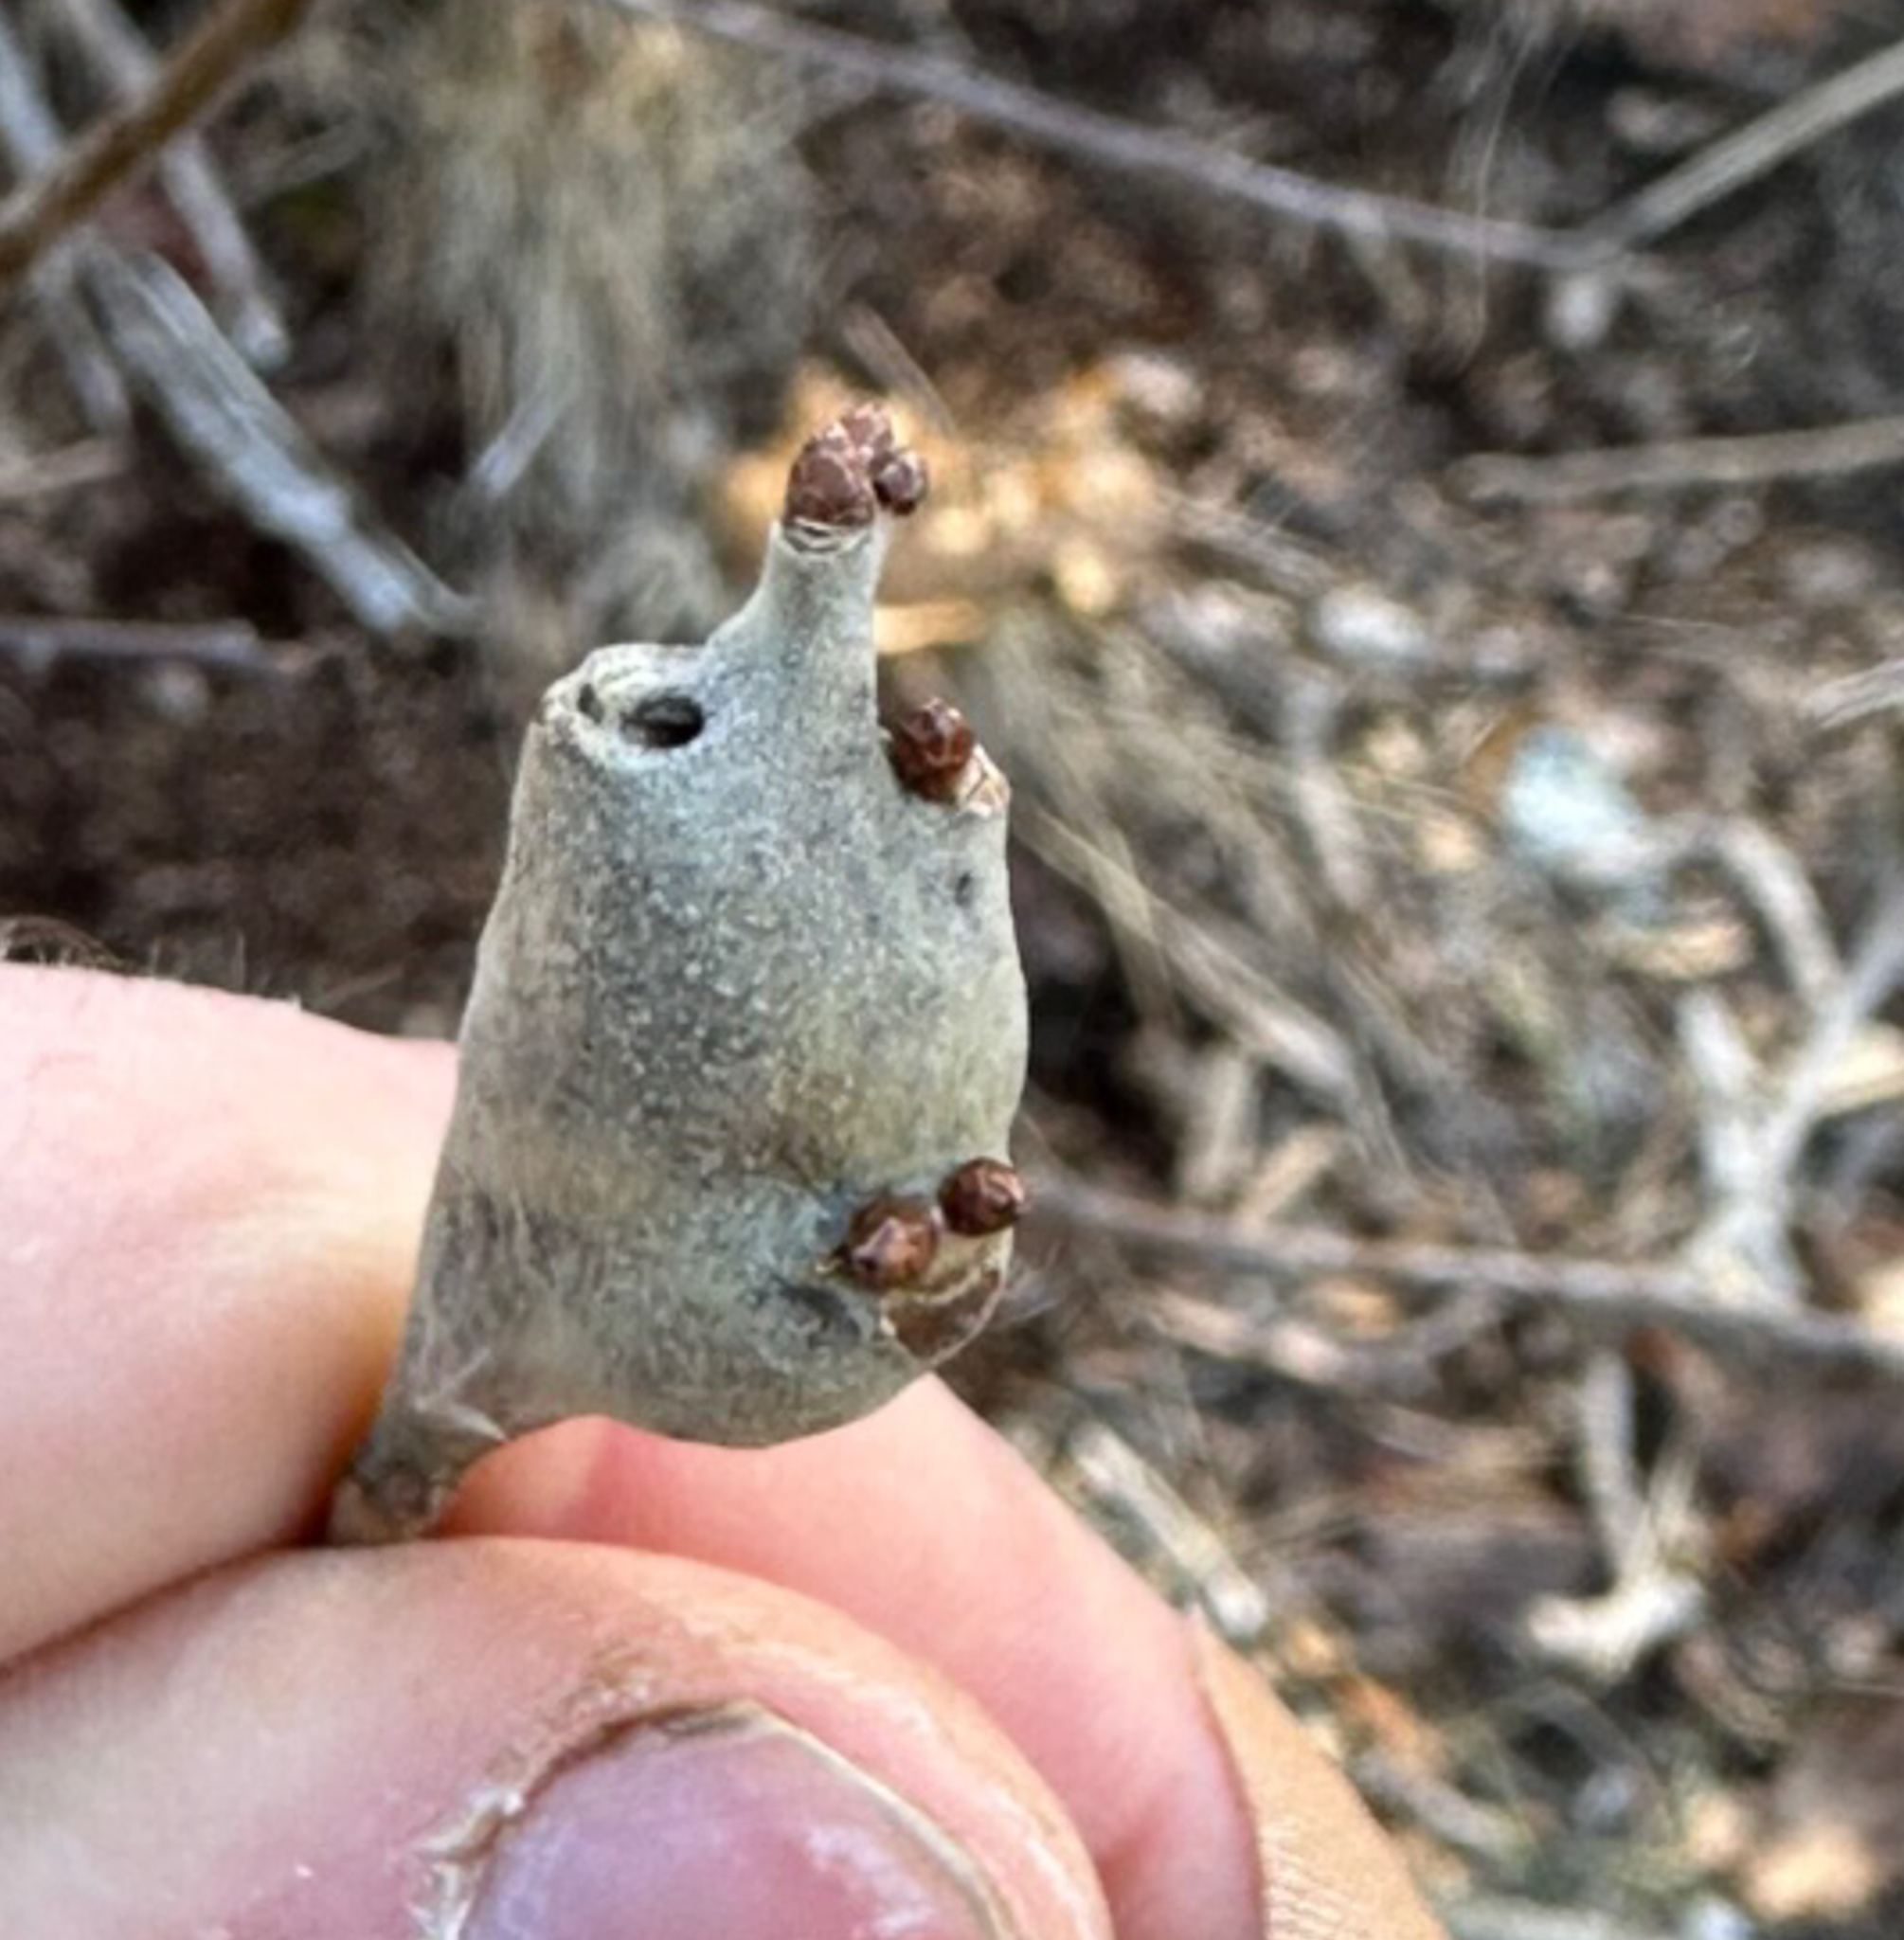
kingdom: Animalia
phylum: Arthropoda
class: Insecta
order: Hymenoptera
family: Cynipidae
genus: Zapatella
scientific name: Zapatella quercusphellos
